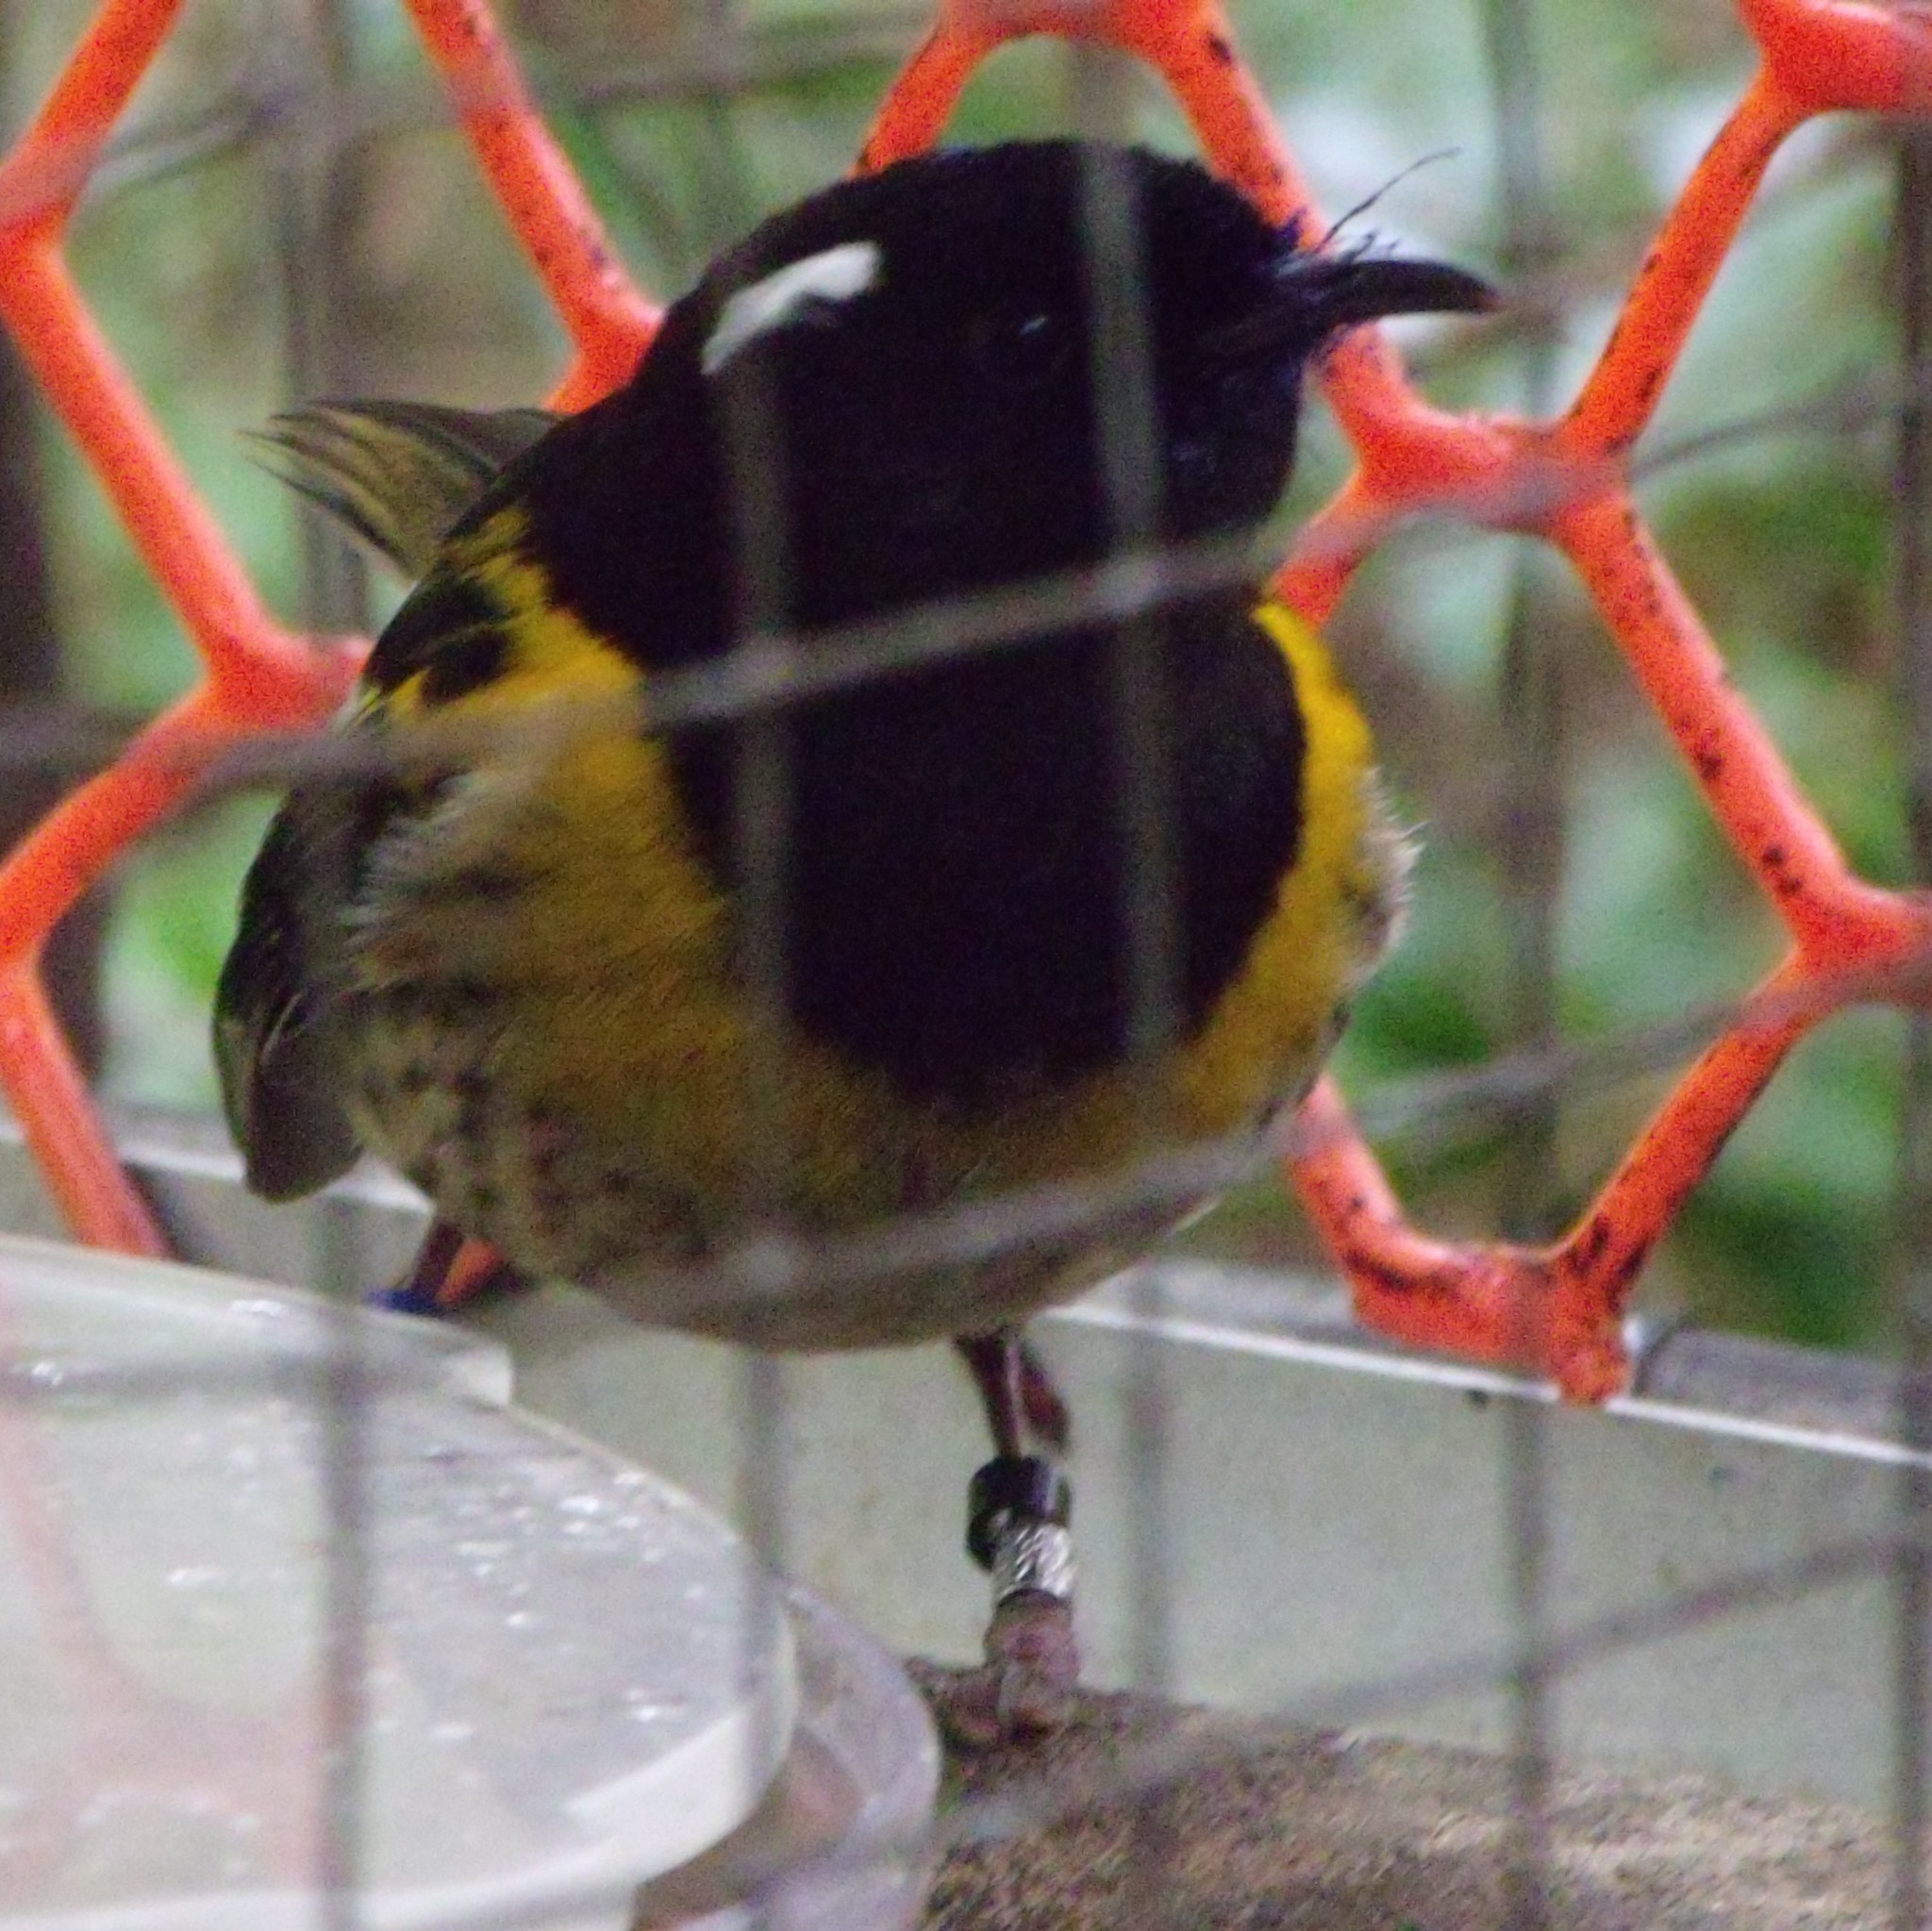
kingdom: Animalia
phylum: Chordata
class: Aves
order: Passeriformes
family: Notiomystidae
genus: Notiomystis
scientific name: Notiomystis cincta
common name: Stitchbird
